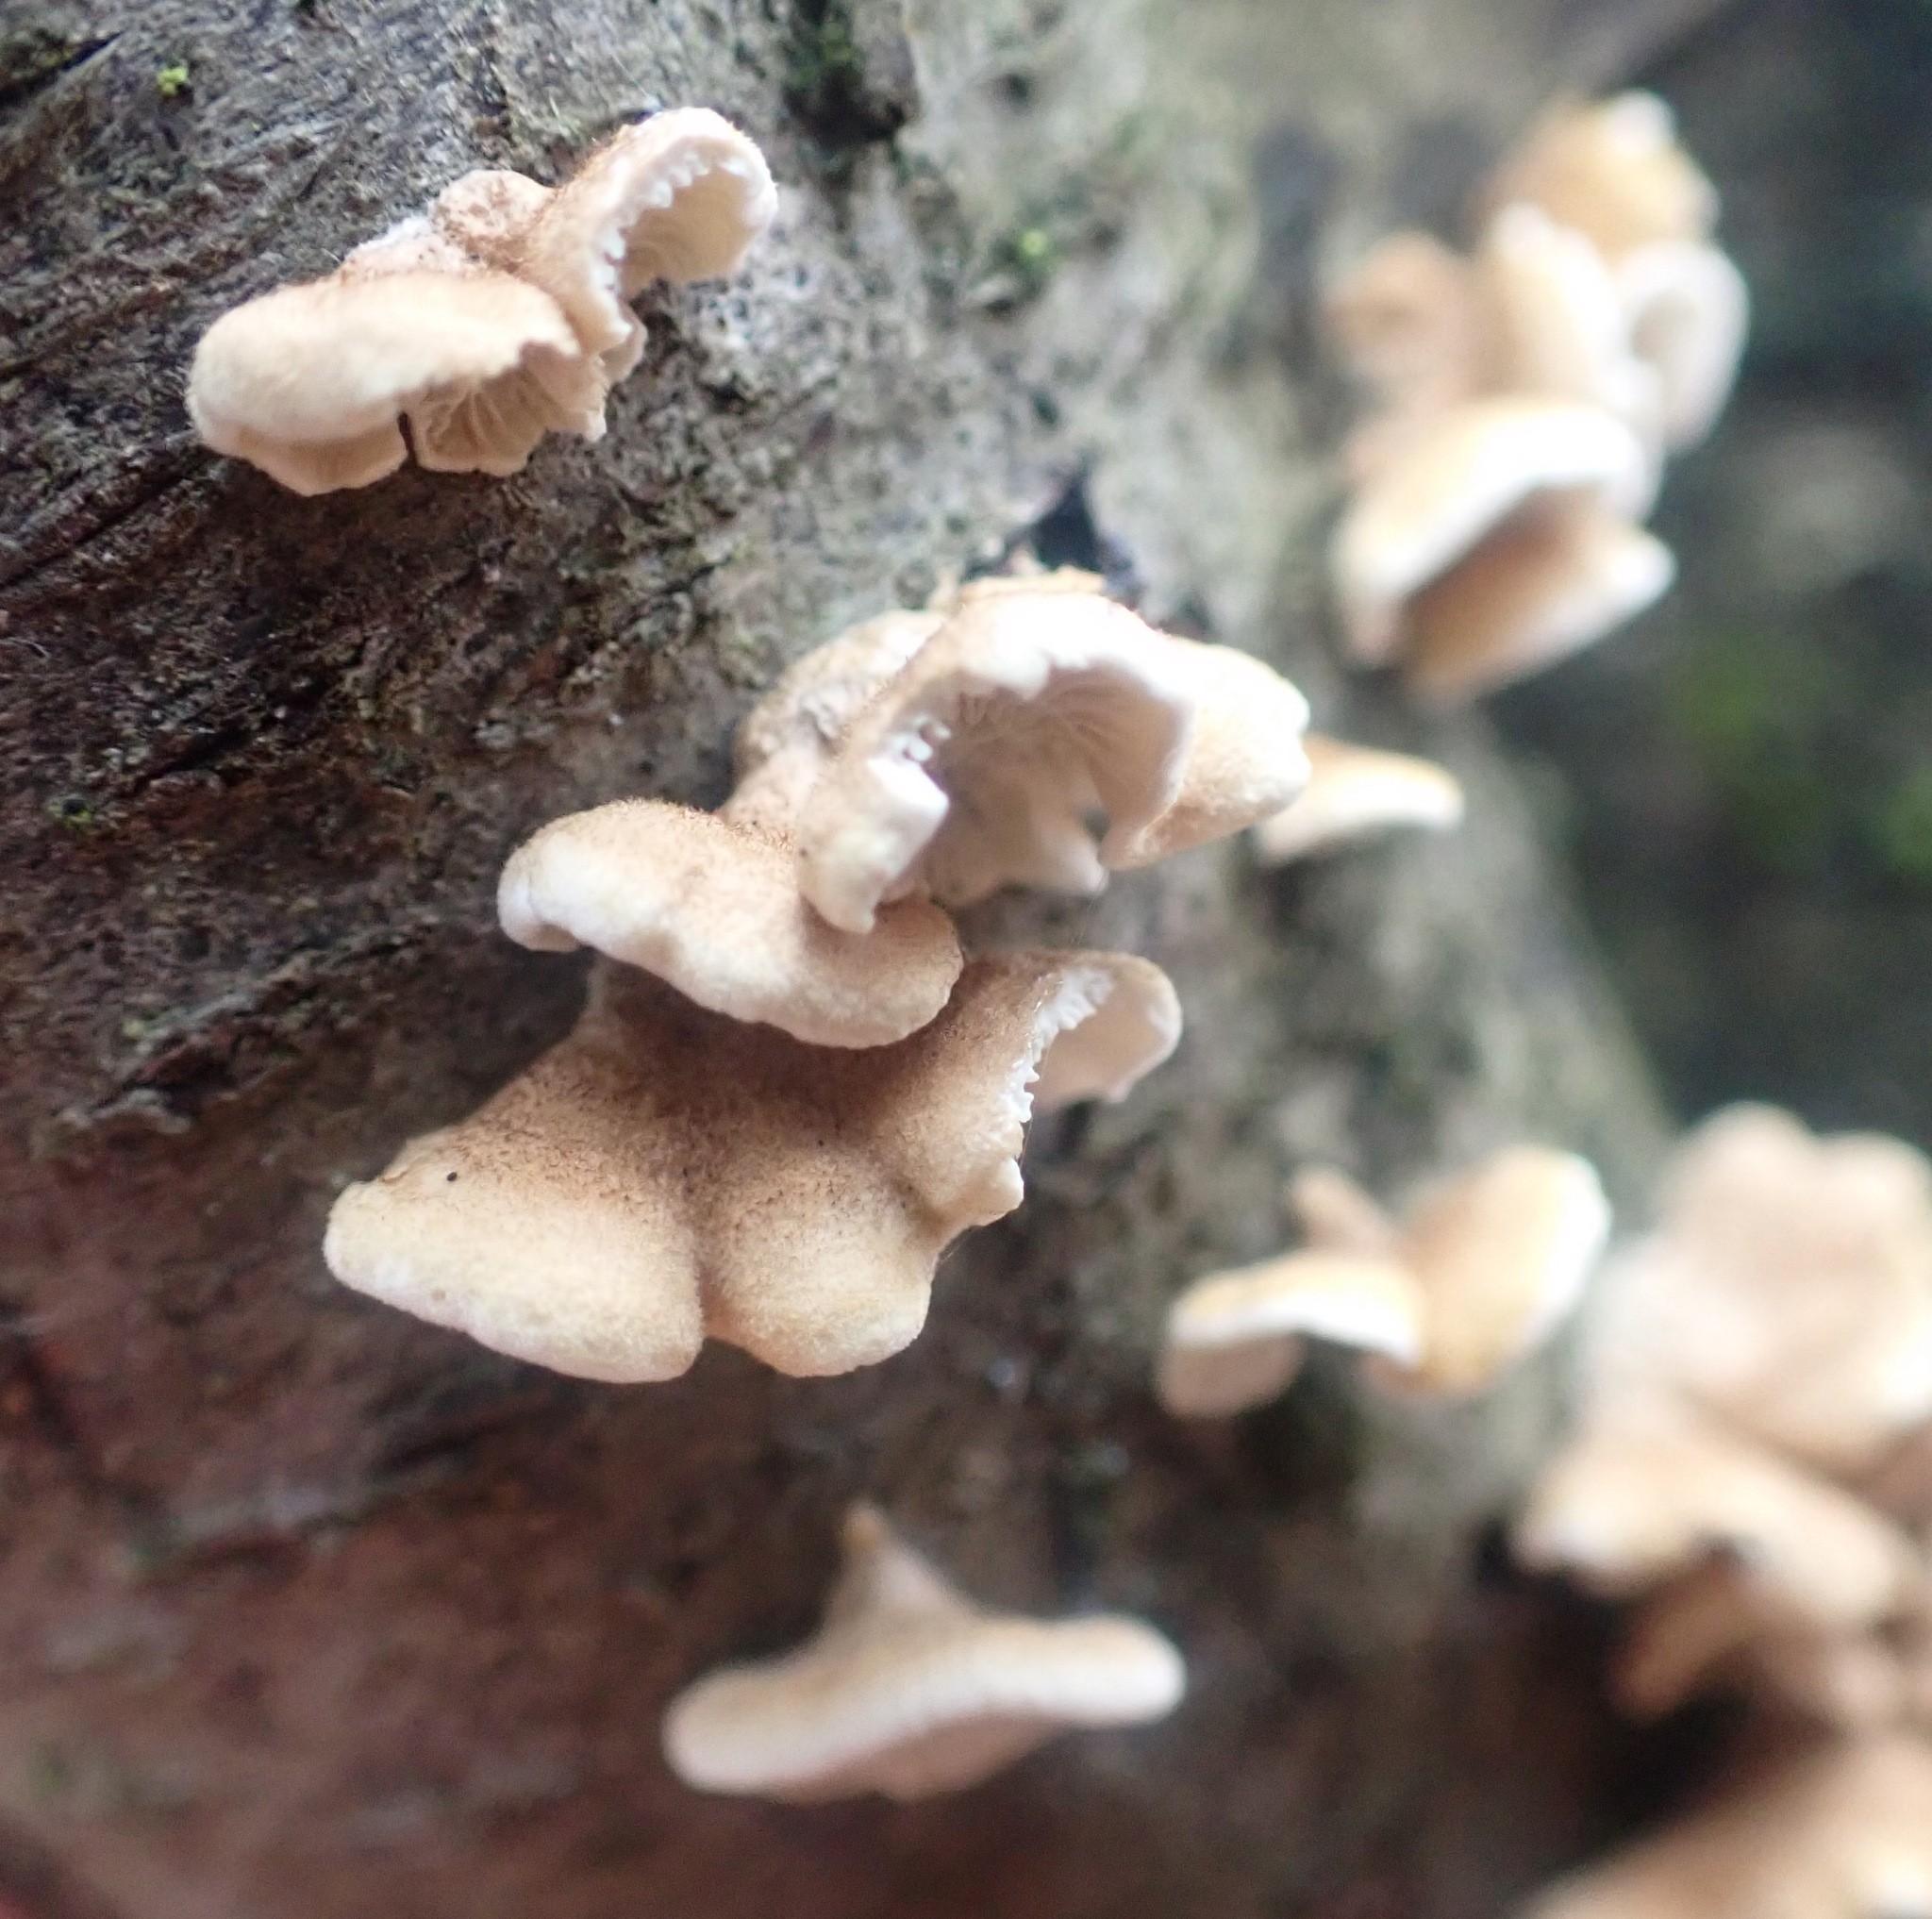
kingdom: Fungi
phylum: Basidiomycota
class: Agaricomycetes
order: Amylocorticiales
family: Amylocorticiaceae
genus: Plicaturopsis
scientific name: Plicaturopsis crispa
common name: Crimped gill
